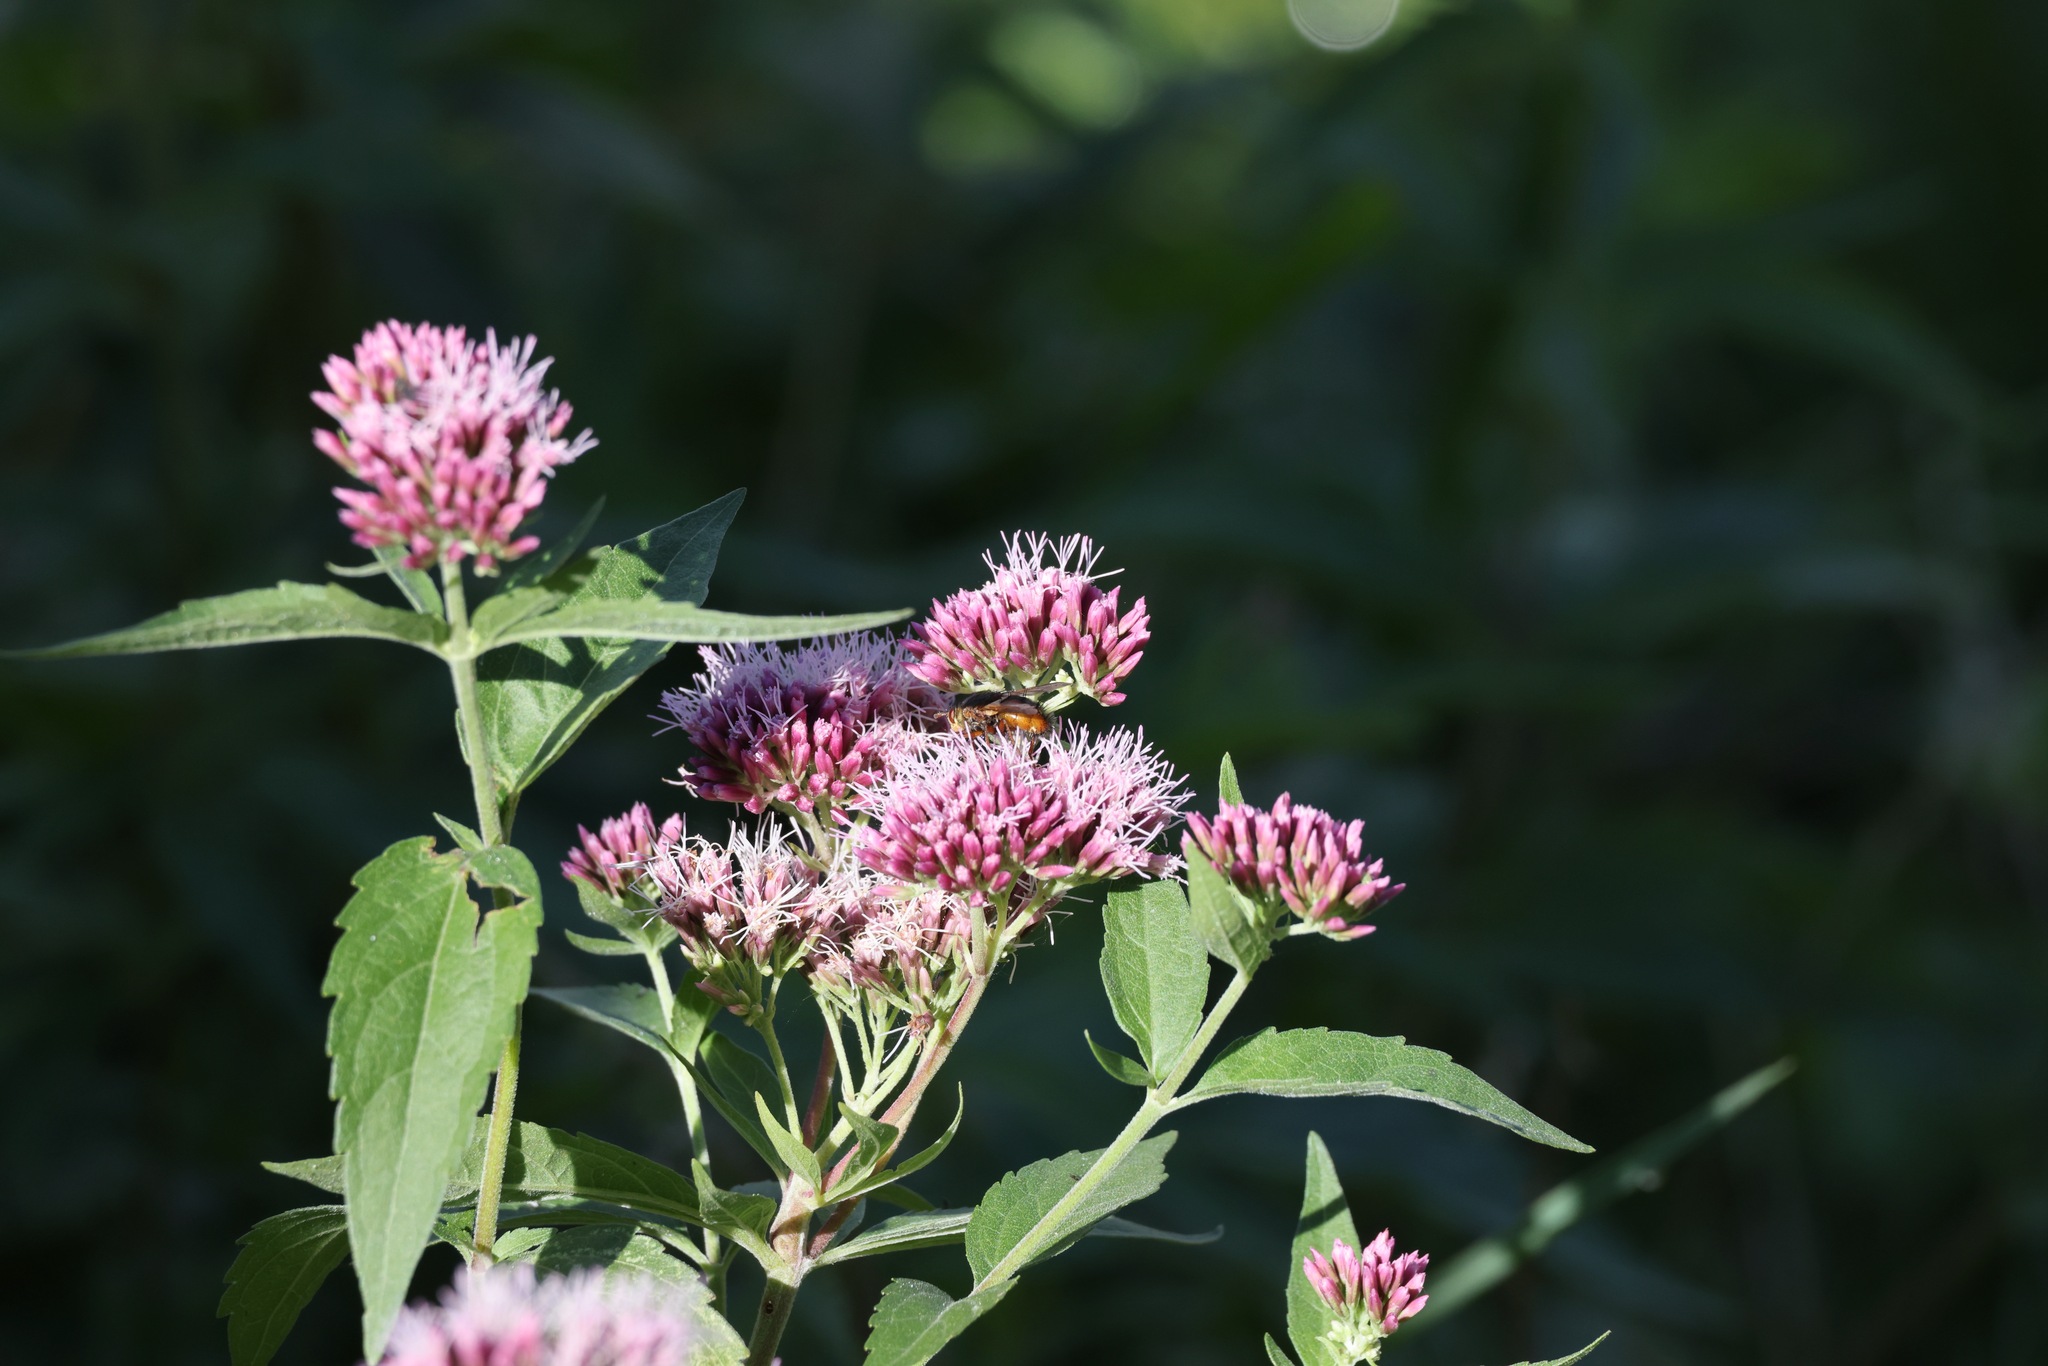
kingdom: Plantae
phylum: Tracheophyta
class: Magnoliopsida
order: Asterales
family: Asteraceae
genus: Eupatorium
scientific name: Eupatorium cannabinum
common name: Hemp-agrimony
